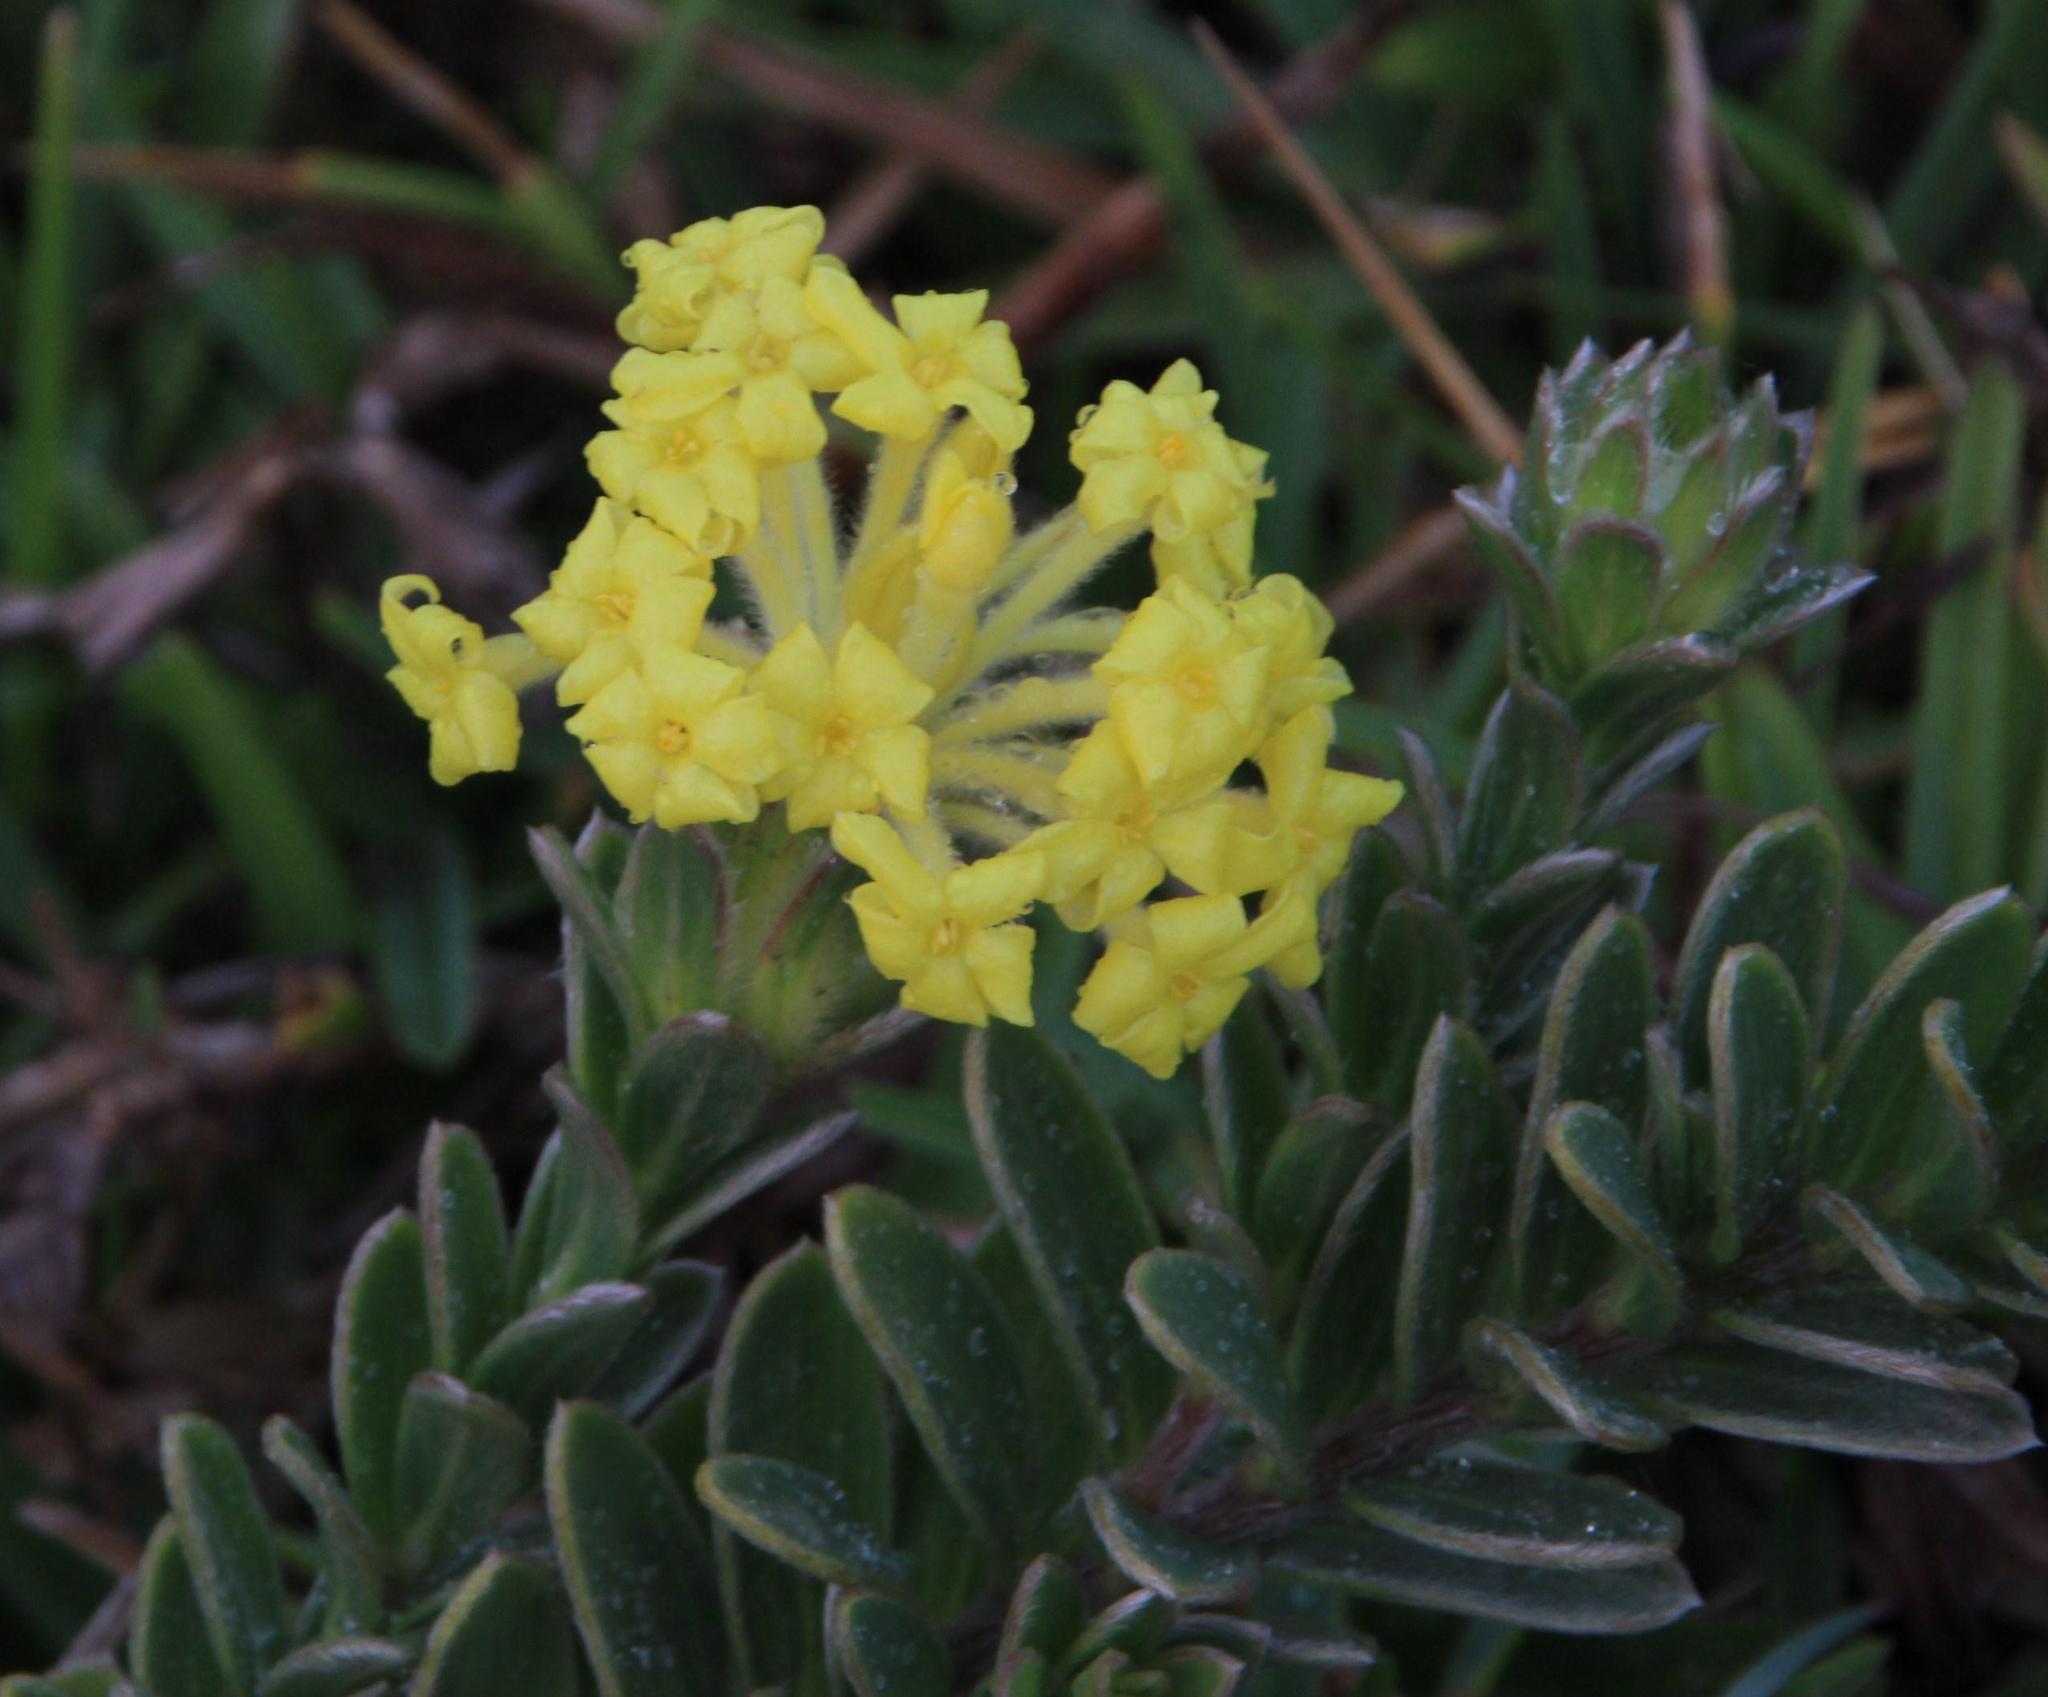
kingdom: Plantae
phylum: Tracheophyta
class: Magnoliopsida
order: Malvales
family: Thymelaeaceae
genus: Gnidia
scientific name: Gnidia anthylloides
